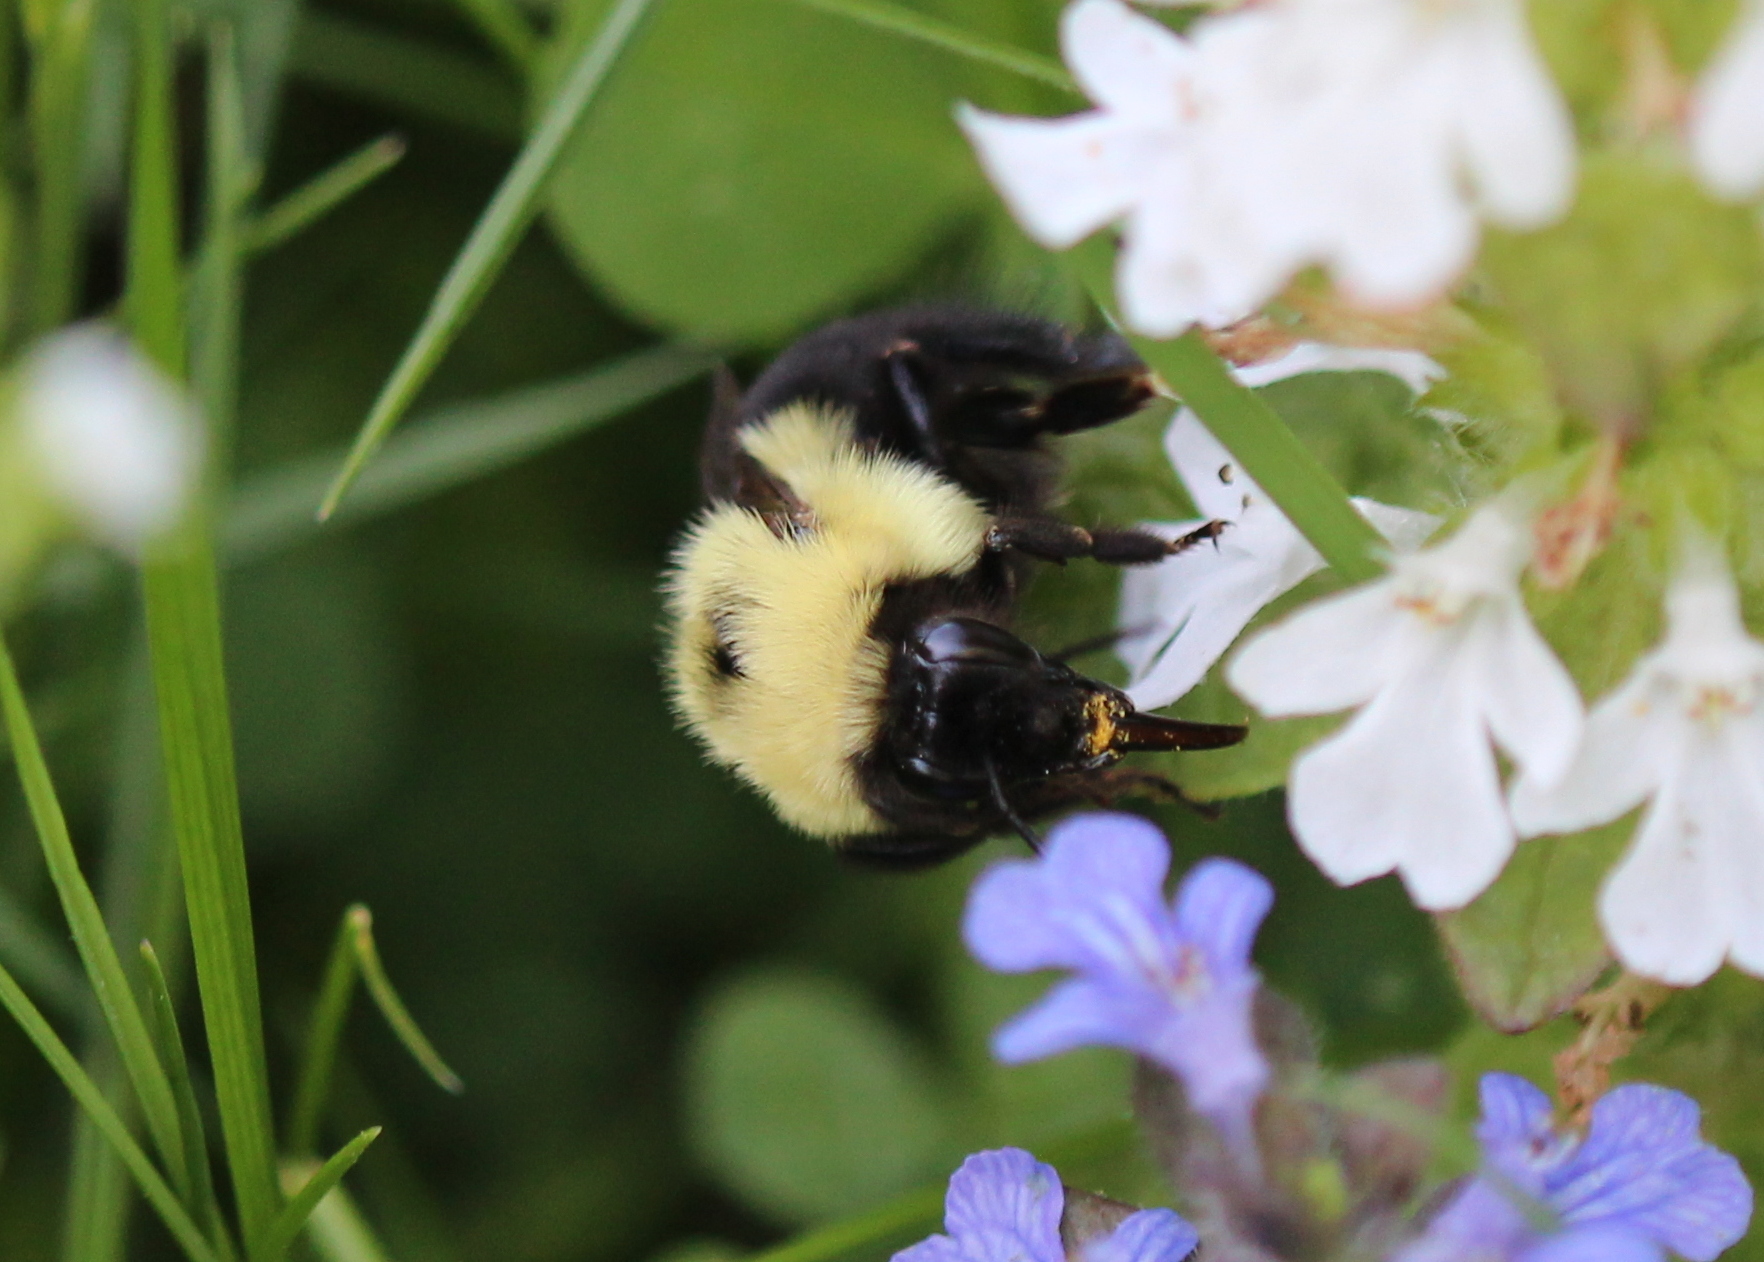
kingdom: Animalia
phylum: Arthropoda
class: Insecta
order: Hymenoptera
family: Apidae
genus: Bombus
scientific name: Bombus bimaculatus
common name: Two-spotted bumble bee
